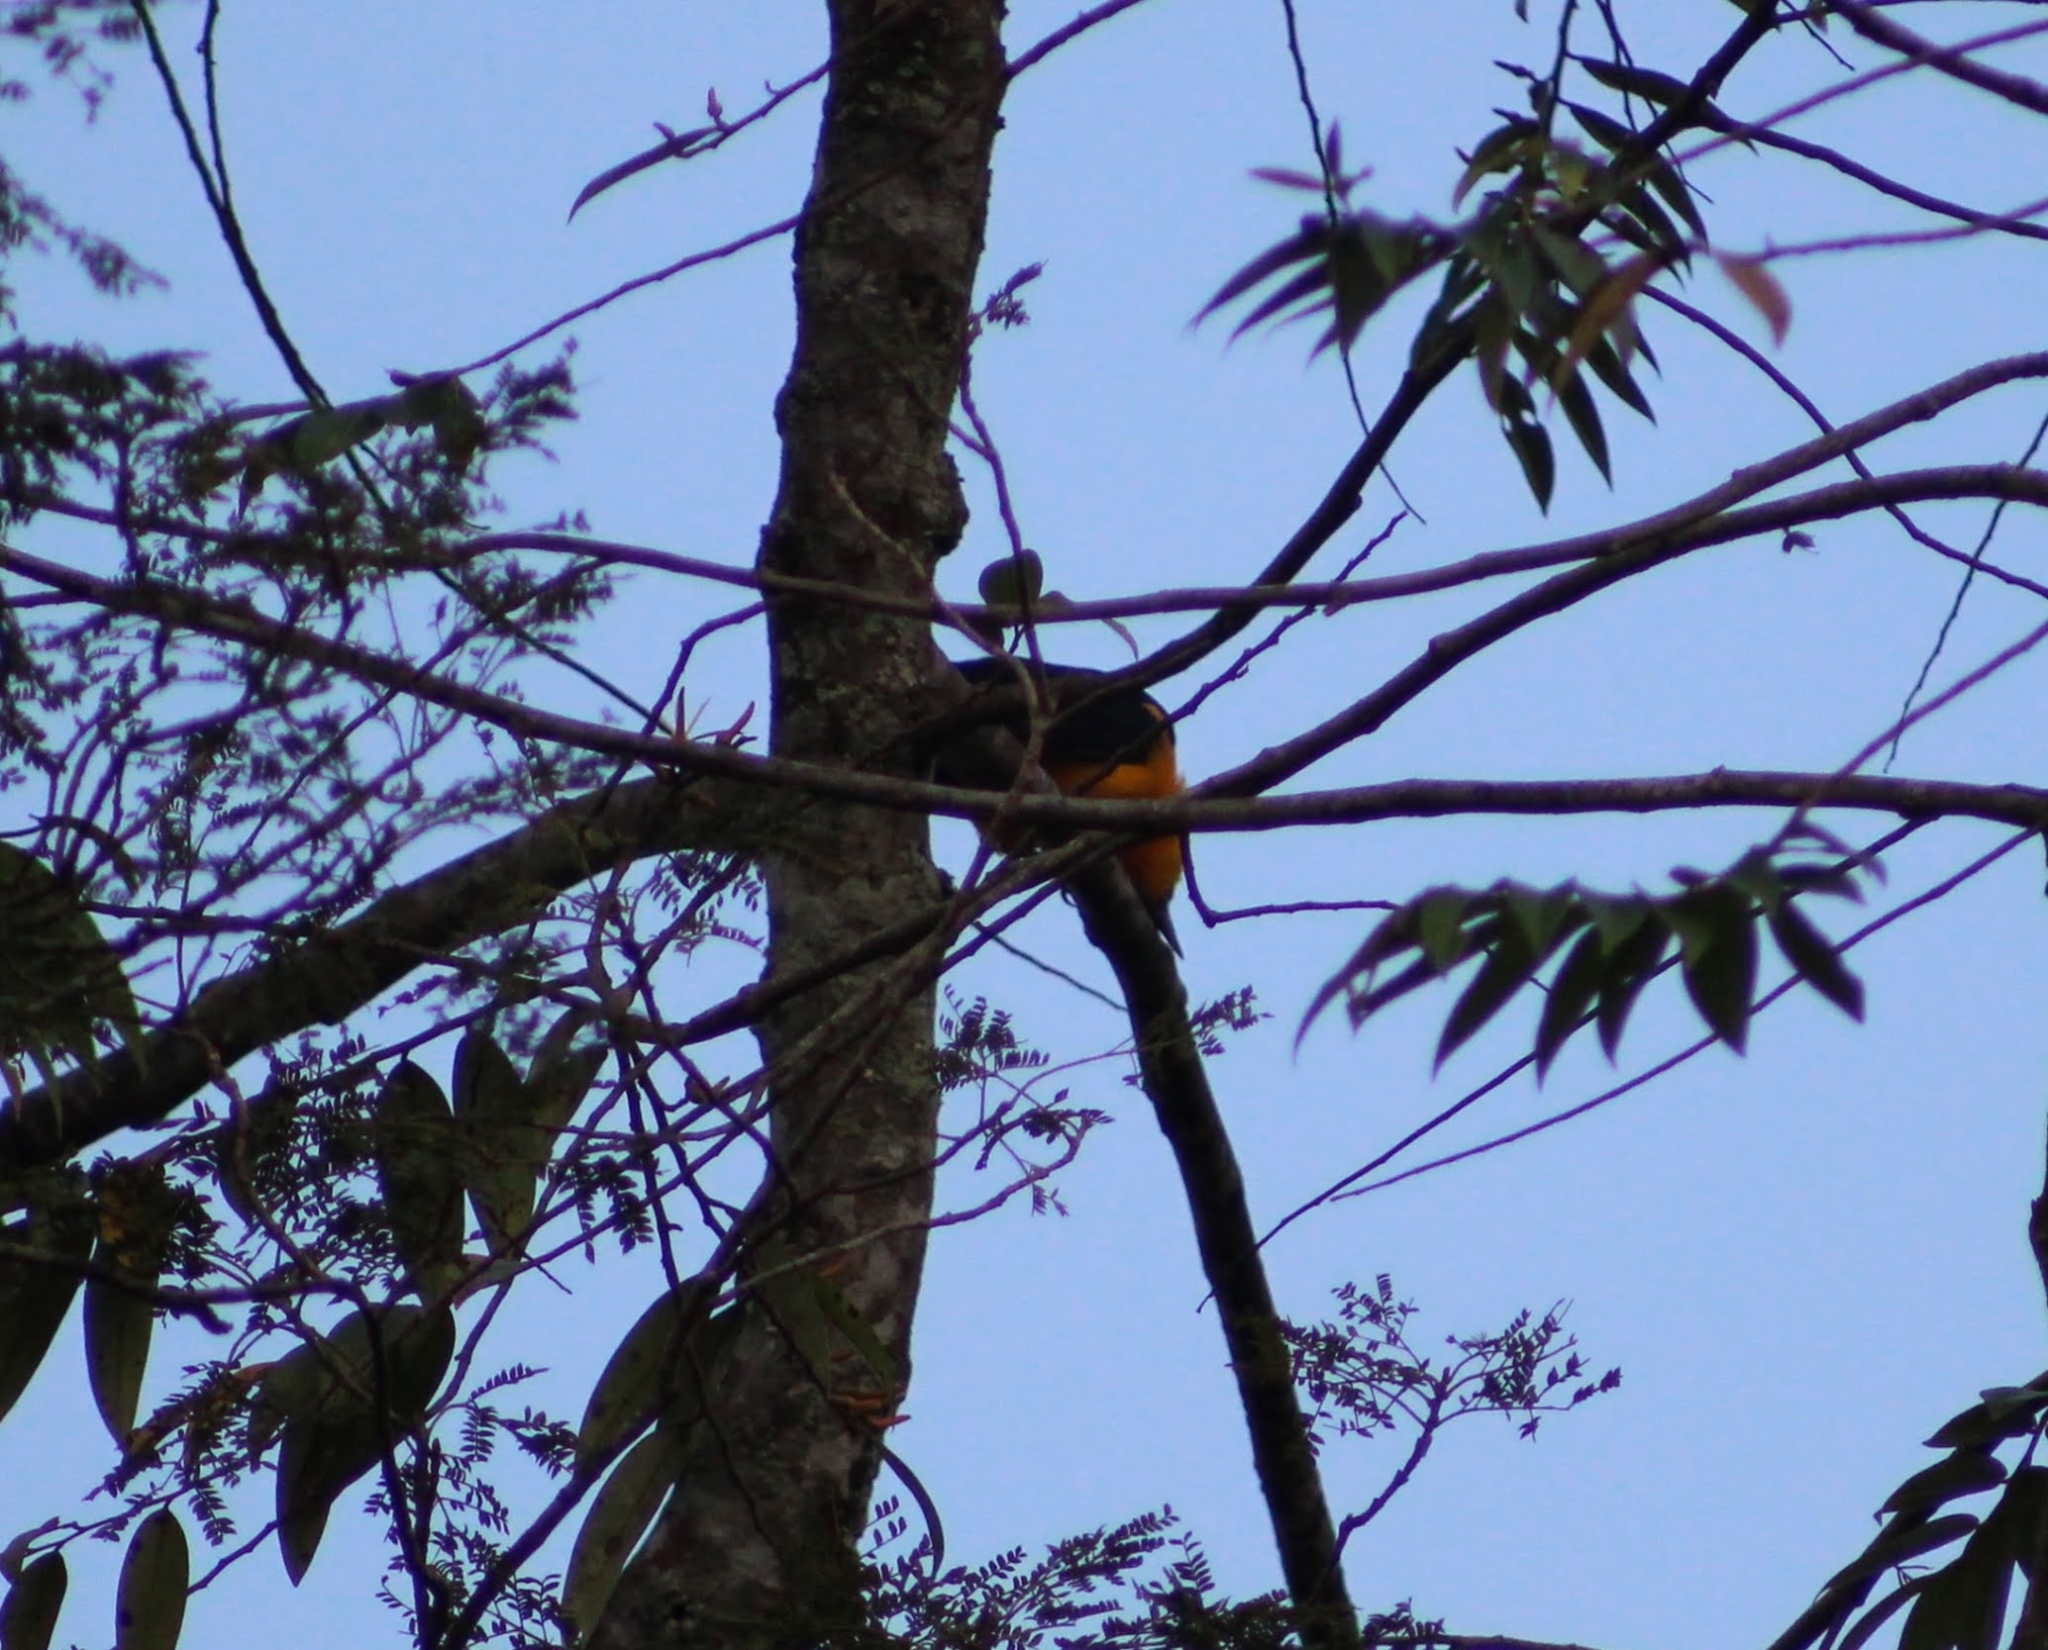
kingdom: Animalia
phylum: Chordata
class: Aves
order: Passeriformes
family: Icteridae
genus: Gymnomystax
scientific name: Gymnomystax mexicanus
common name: Oriole blackbird
